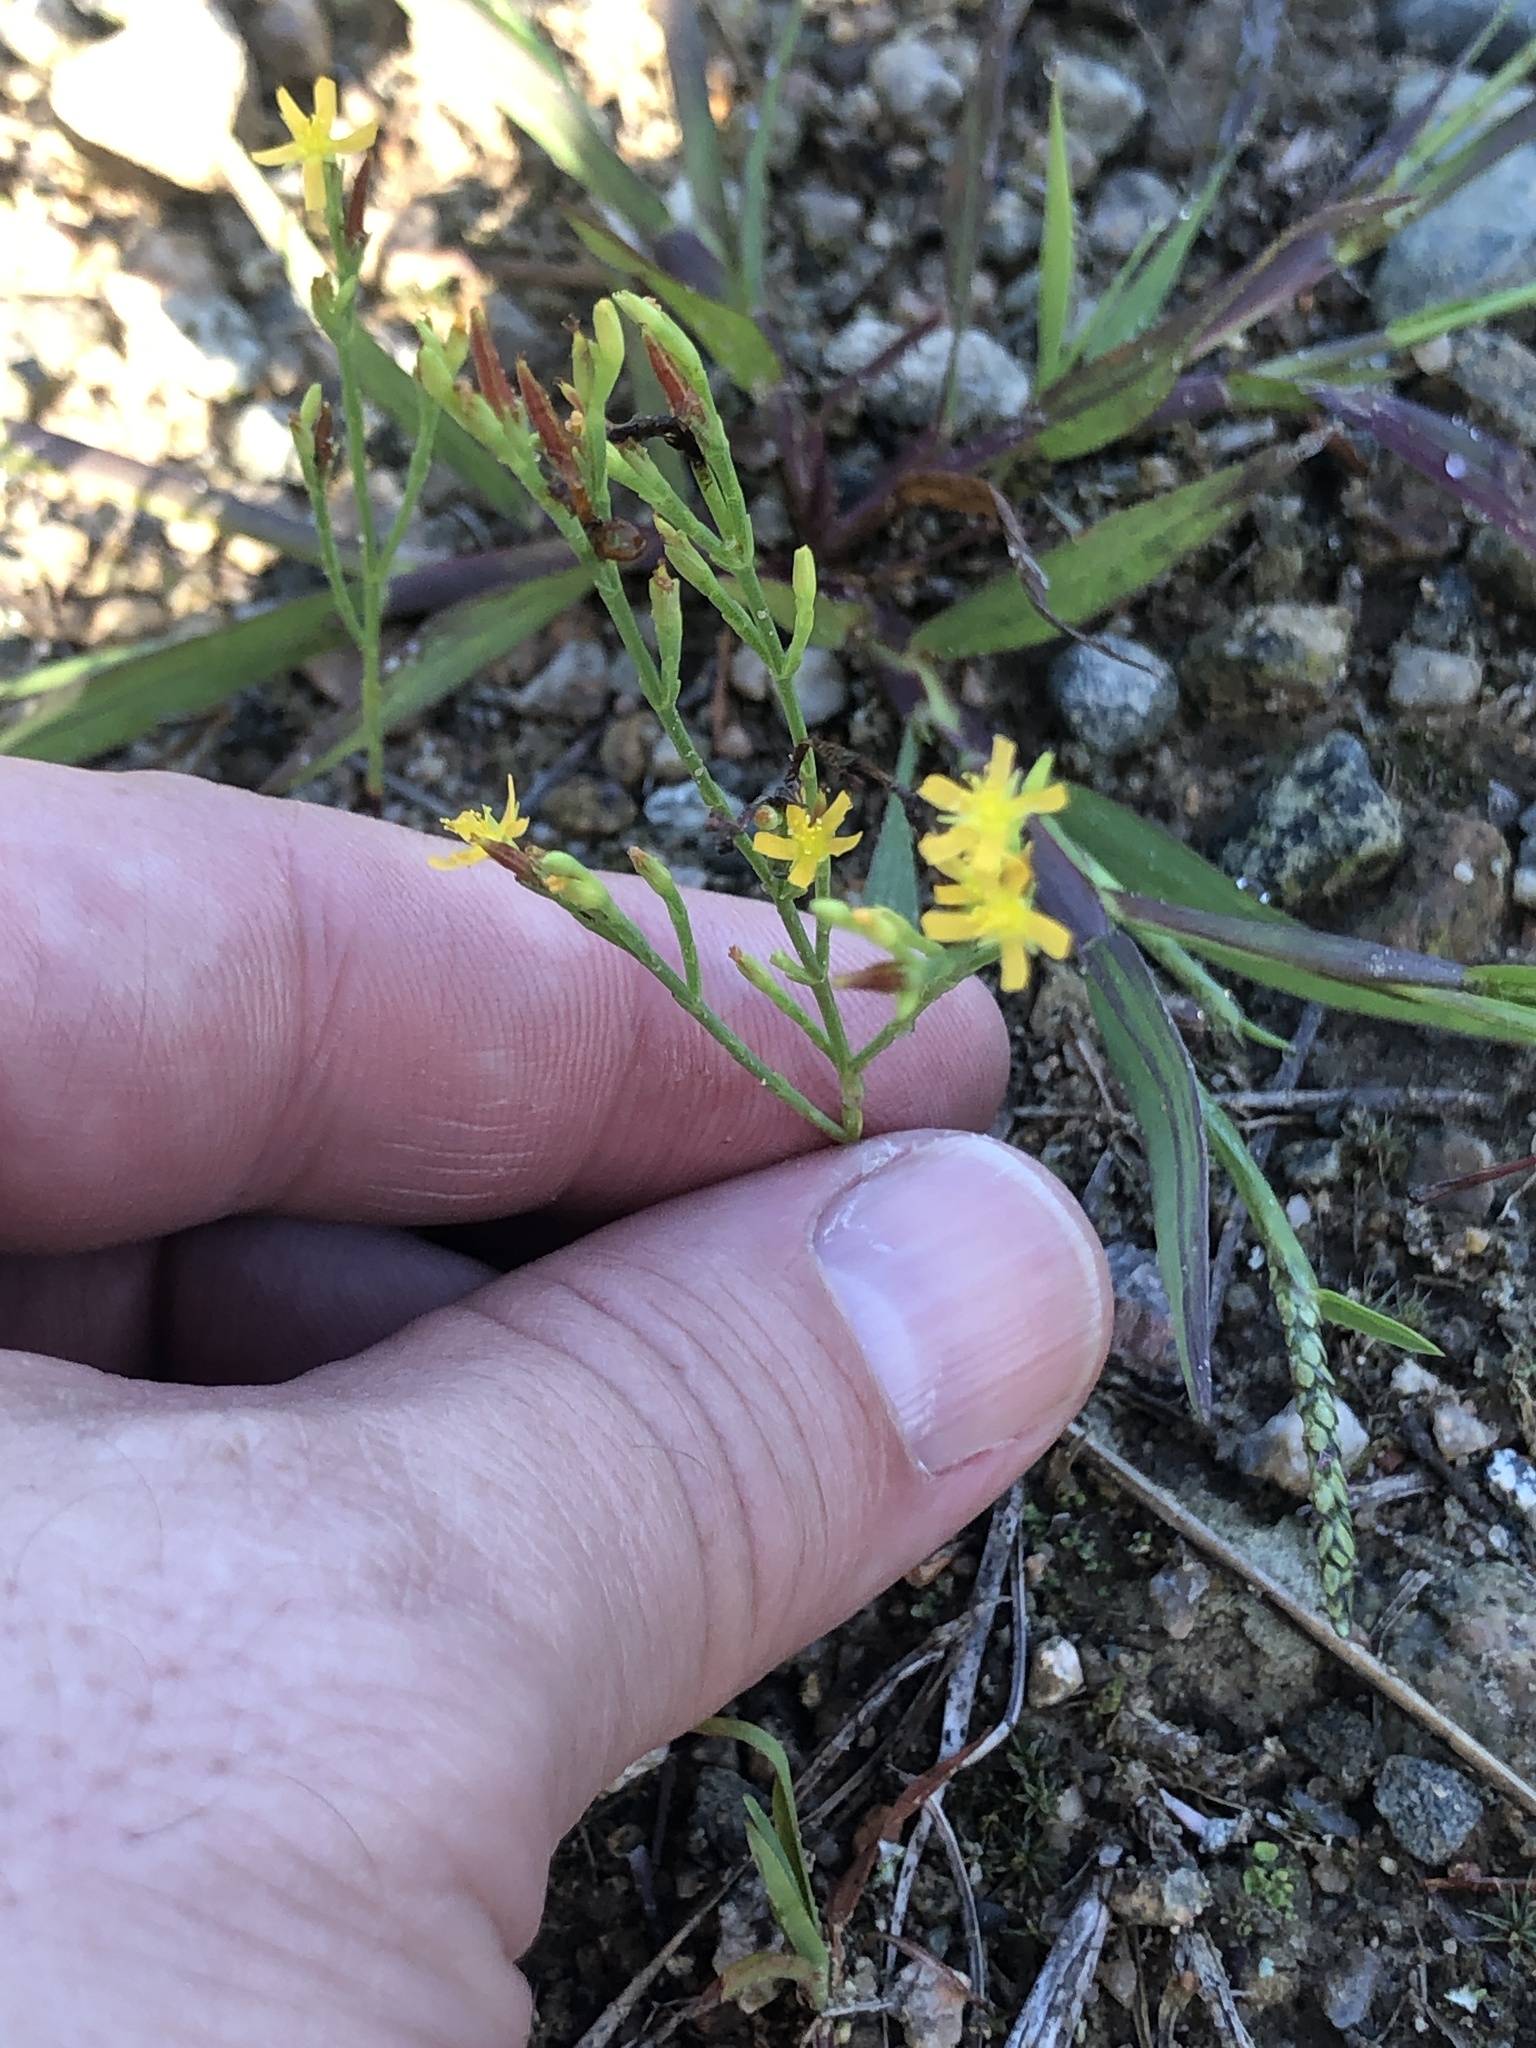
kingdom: Plantae
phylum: Tracheophyta
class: Magnoliopsida
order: Malpighiales
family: Hypericaceae
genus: Hypericum
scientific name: Hypericum gentianoides
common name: Gentian-leaved st. john's-wort
